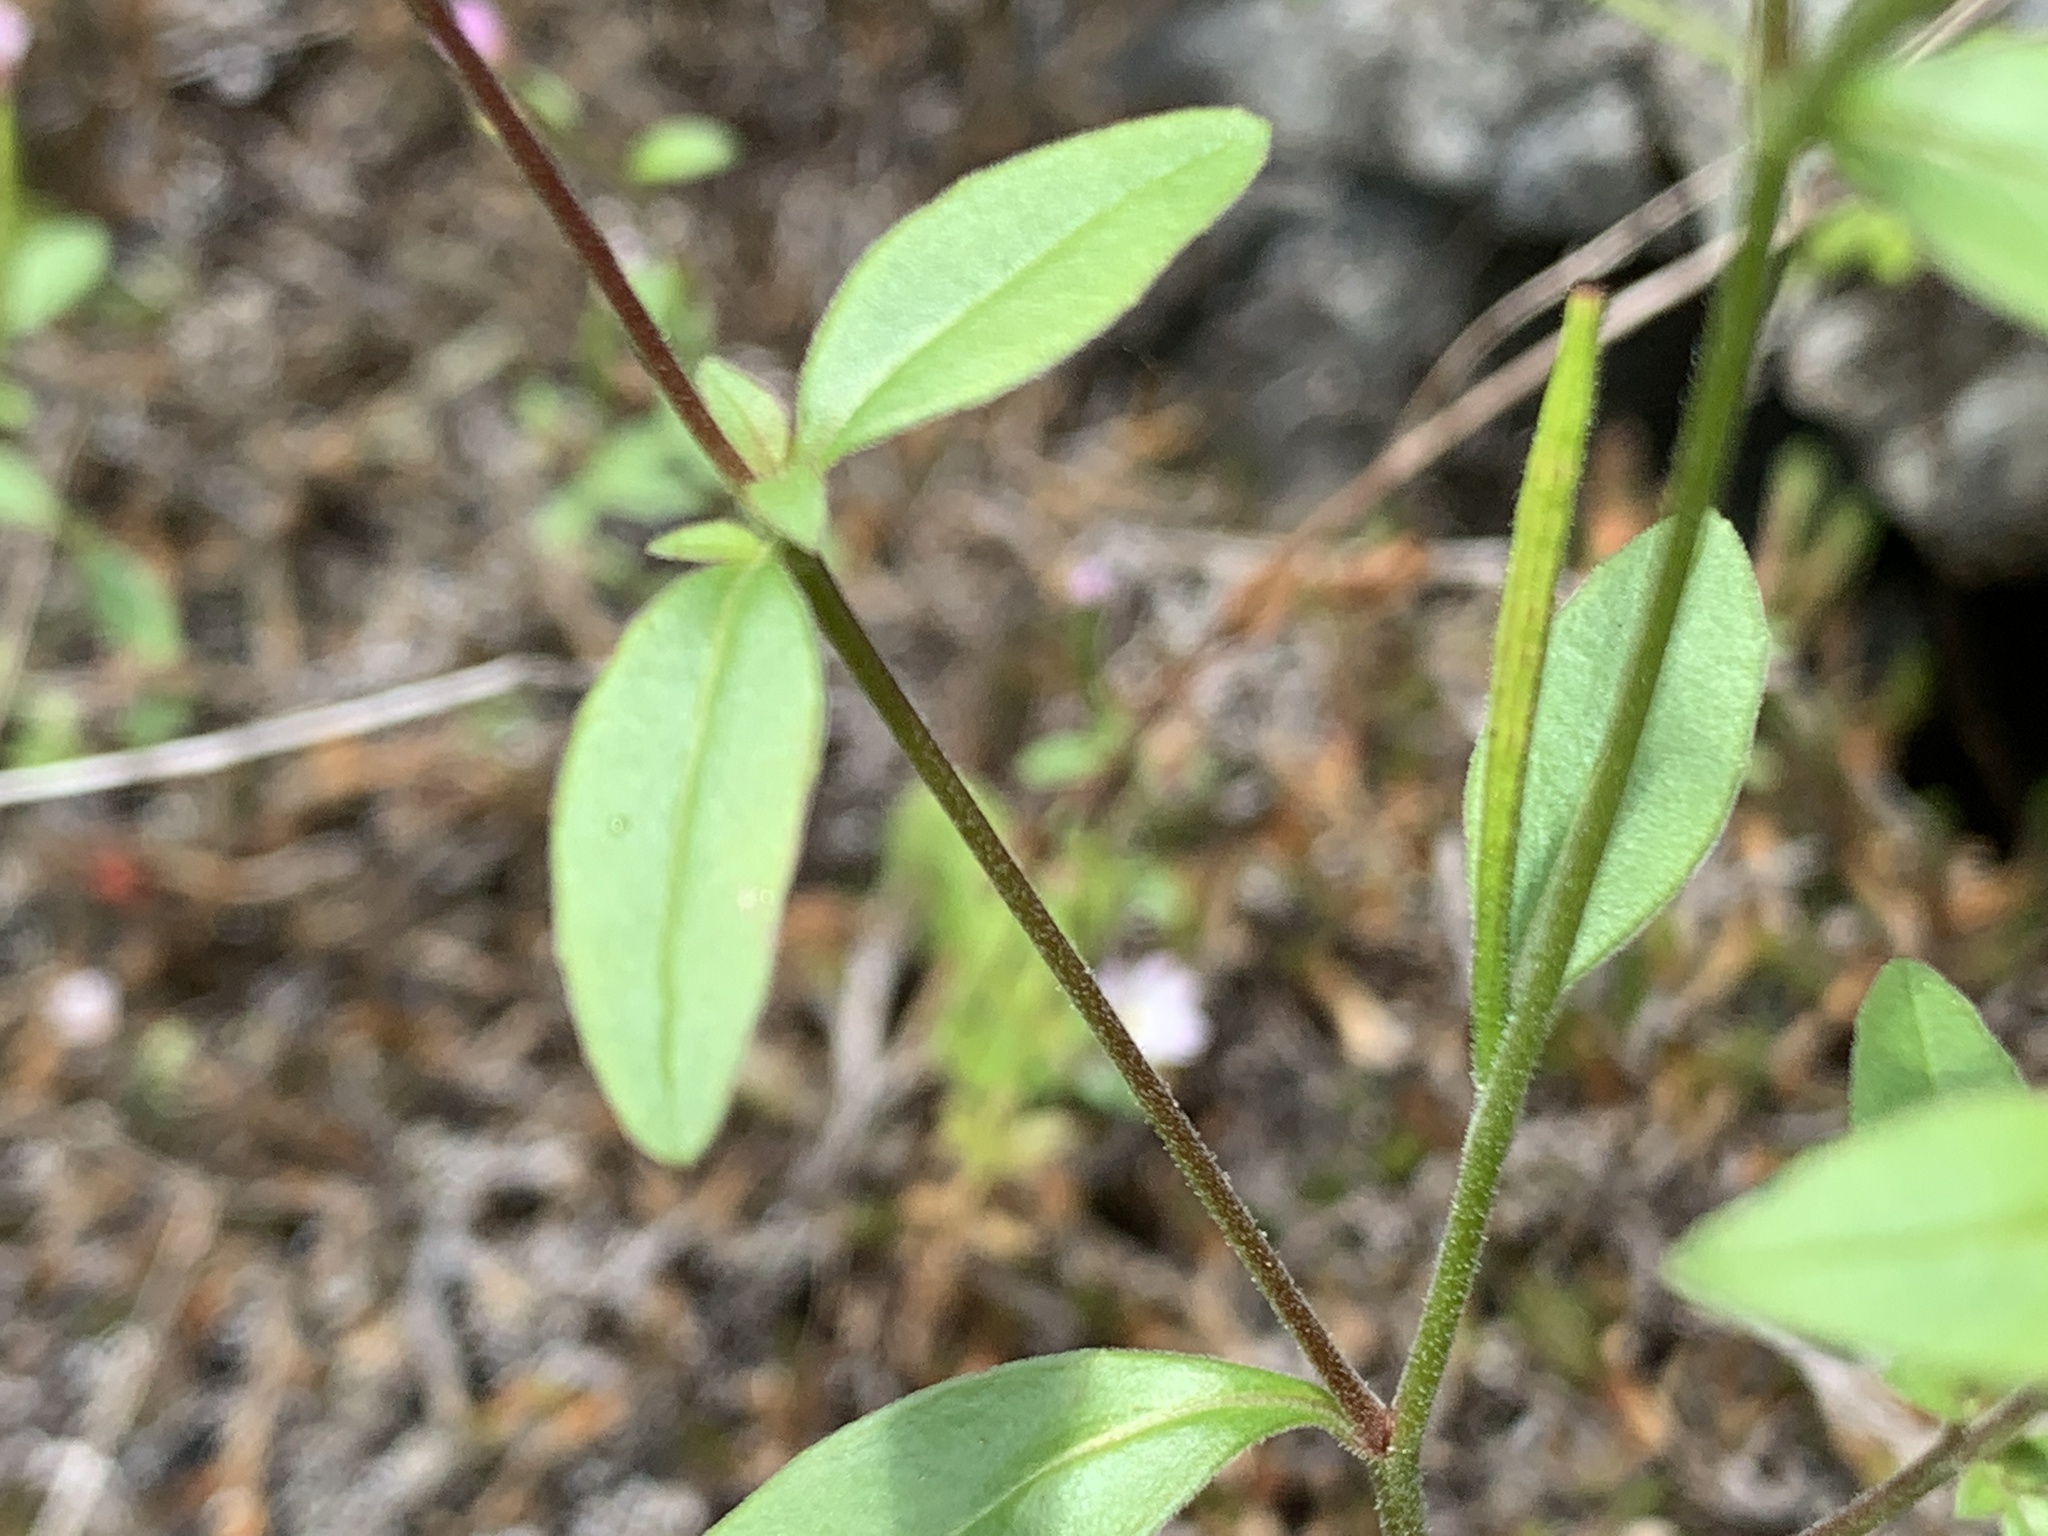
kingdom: Plantae
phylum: Tracheophyta
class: Magnoliopsida
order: Myrtales
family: Onagraceae
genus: Epilobium
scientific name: Epilobium ciliatum
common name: American willowherb
